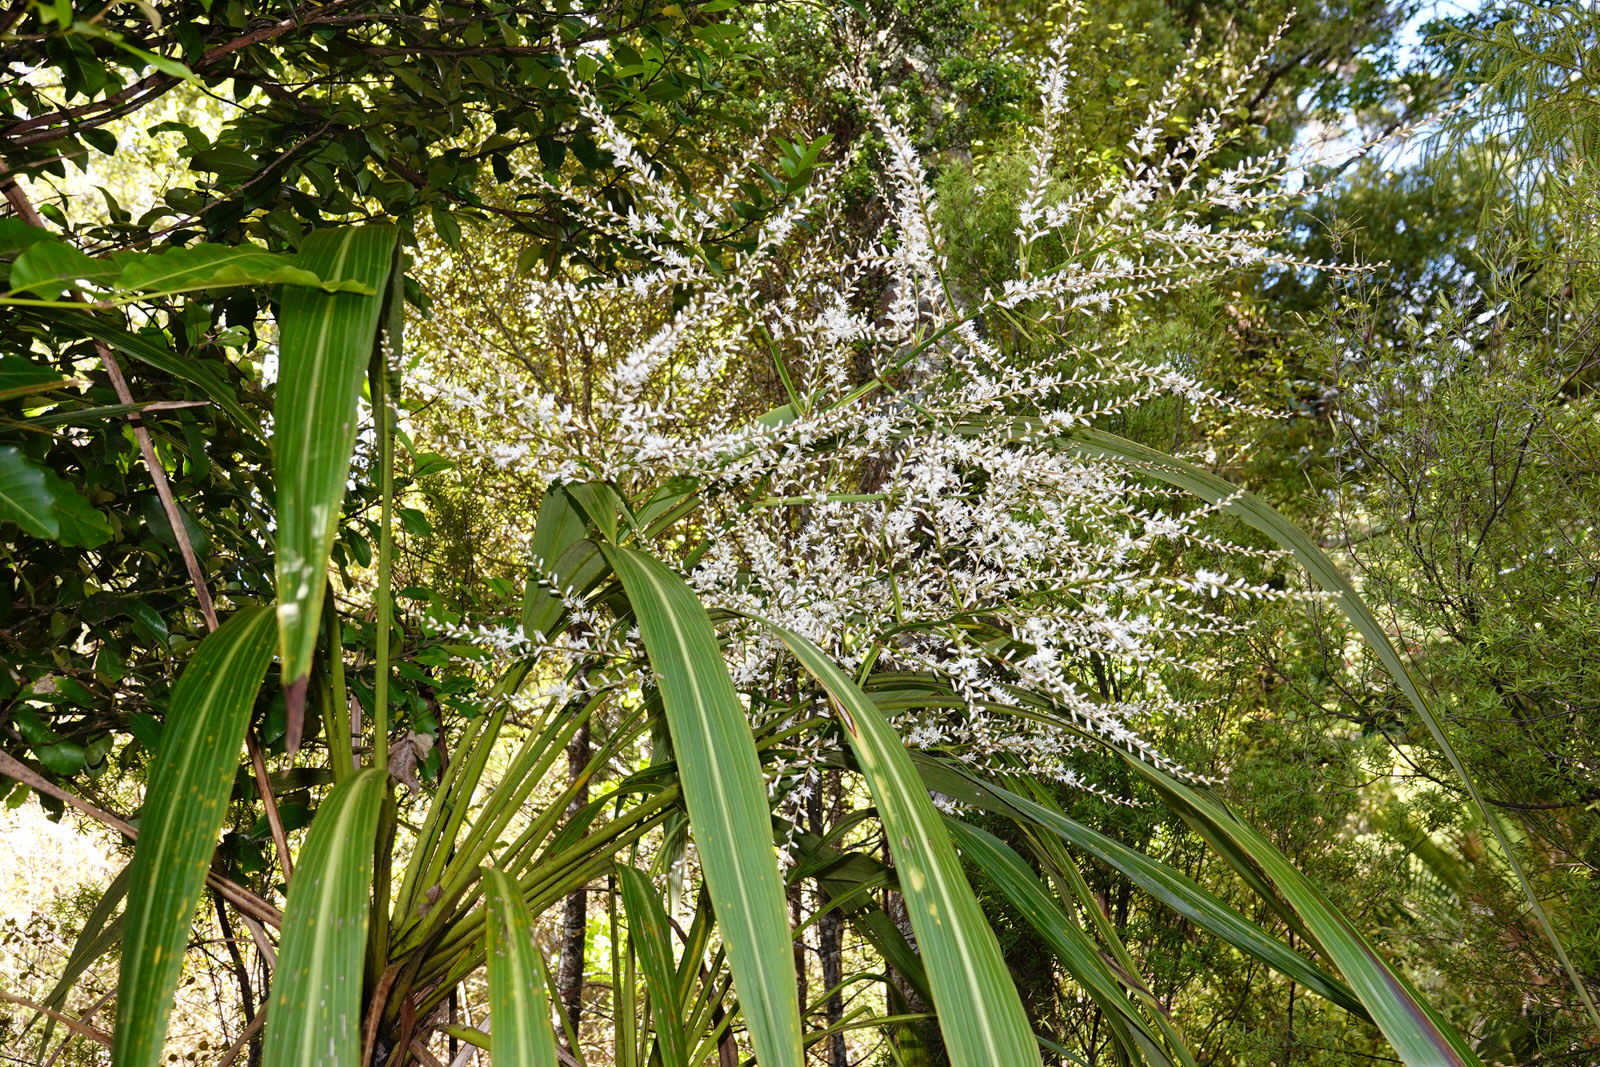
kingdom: Plantae
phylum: Tracheophyta
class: Liliopsida
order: Asparagales
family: Asparagaceae
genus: Cordyline
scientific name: Cordyline banksii
